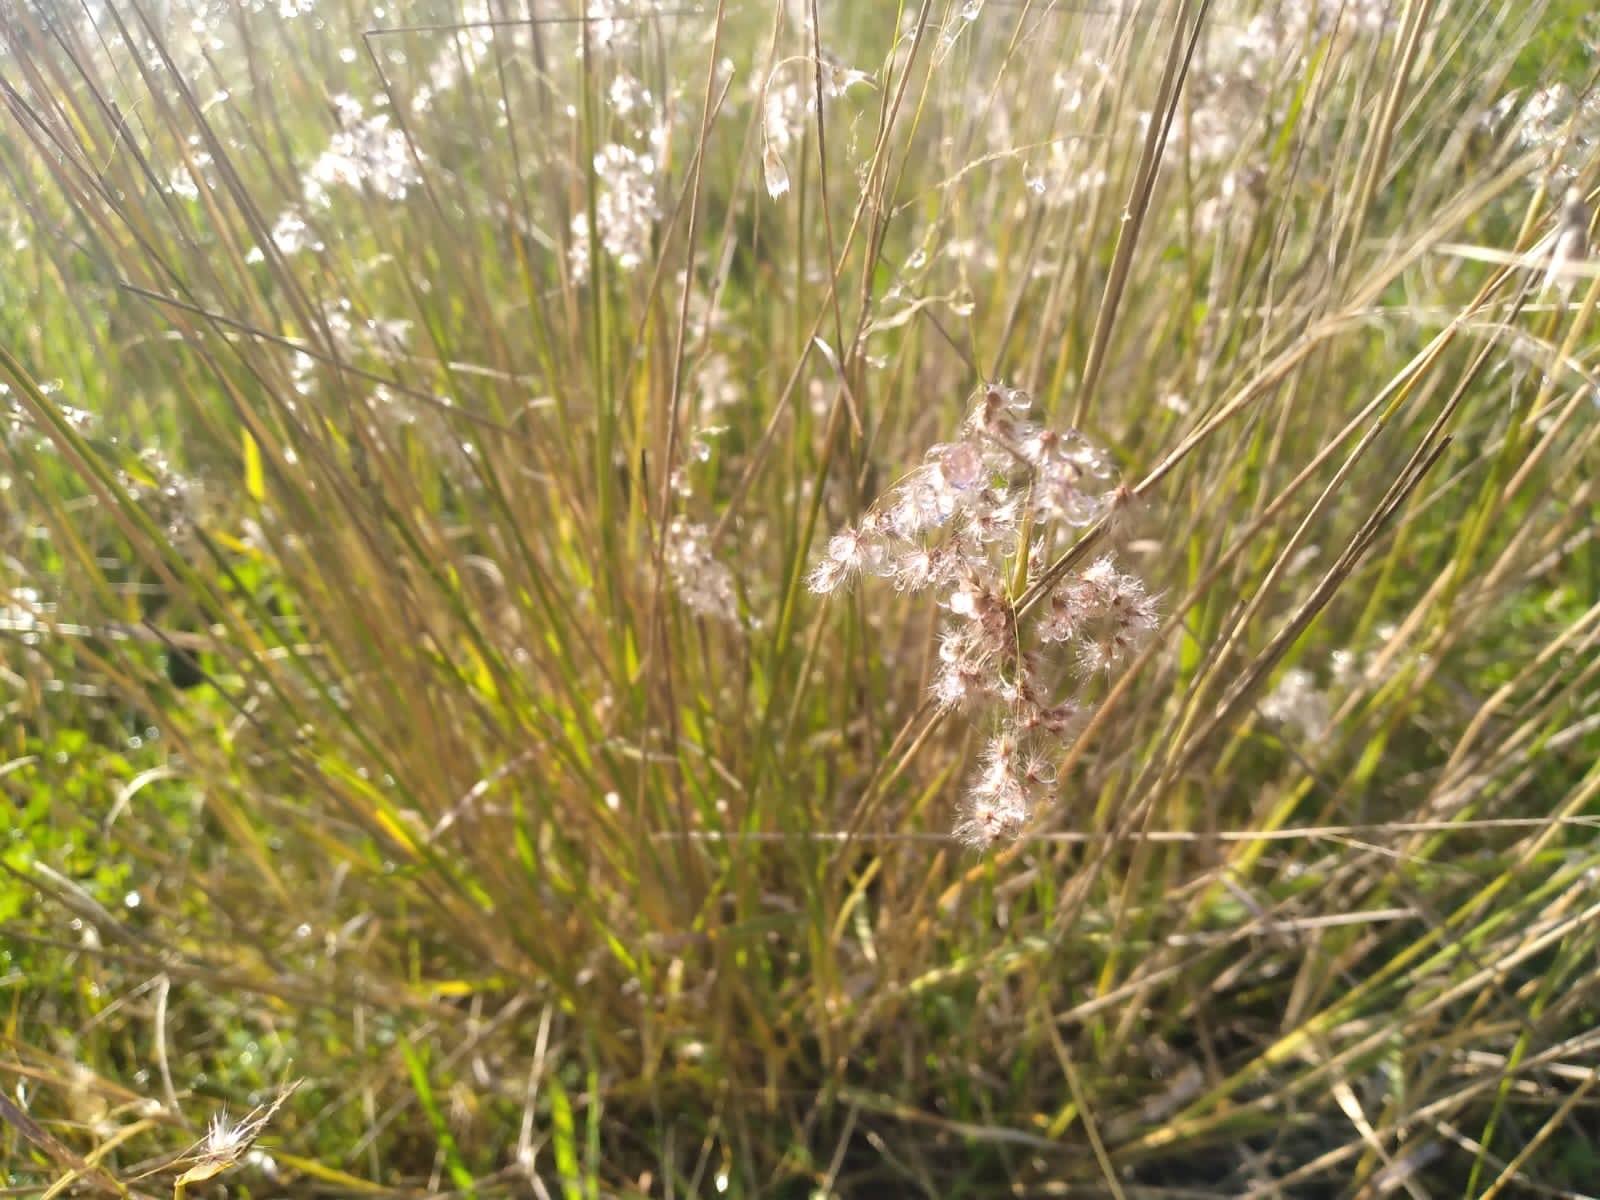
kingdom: Plantae
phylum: Tracheophyta
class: Liliopsida
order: Poales
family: Poaceae
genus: Melinis
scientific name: Melinis repens
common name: Rose natal grass
